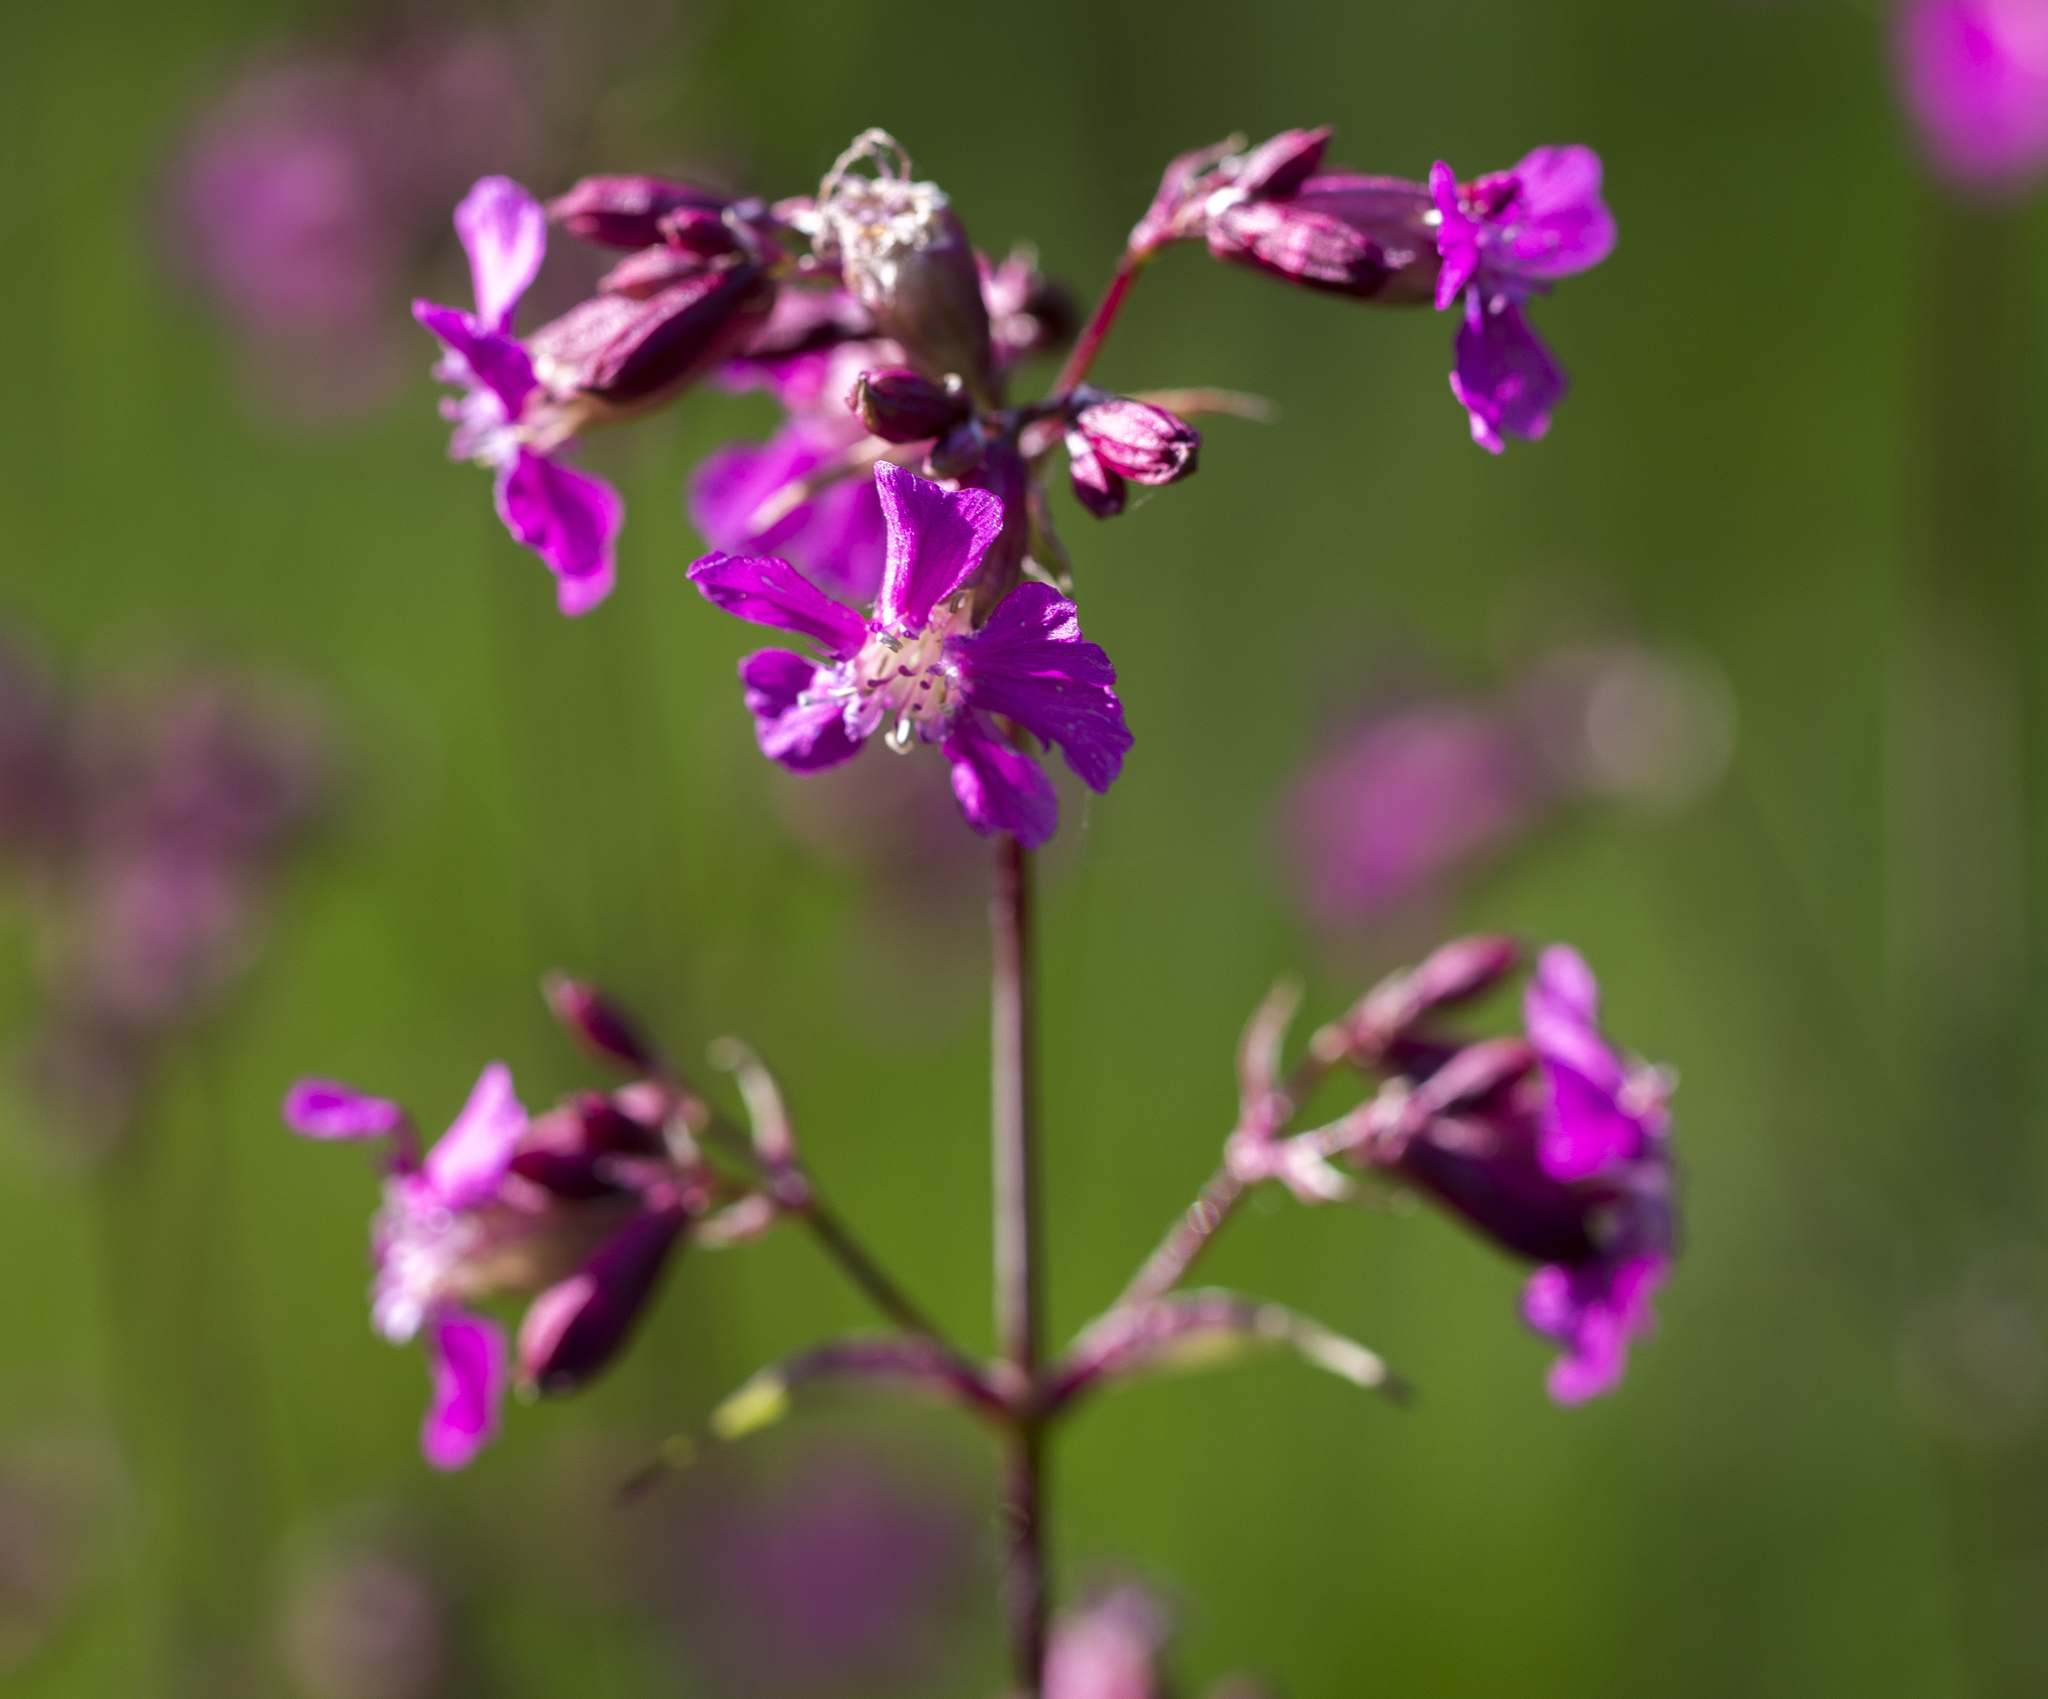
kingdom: Plantae
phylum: Tracheophyta
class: Magnoliopsida
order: Caryophyllales
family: Caryophyllaceae
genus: Viscaria
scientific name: Viscaria vulgaris
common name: Clammy campion
